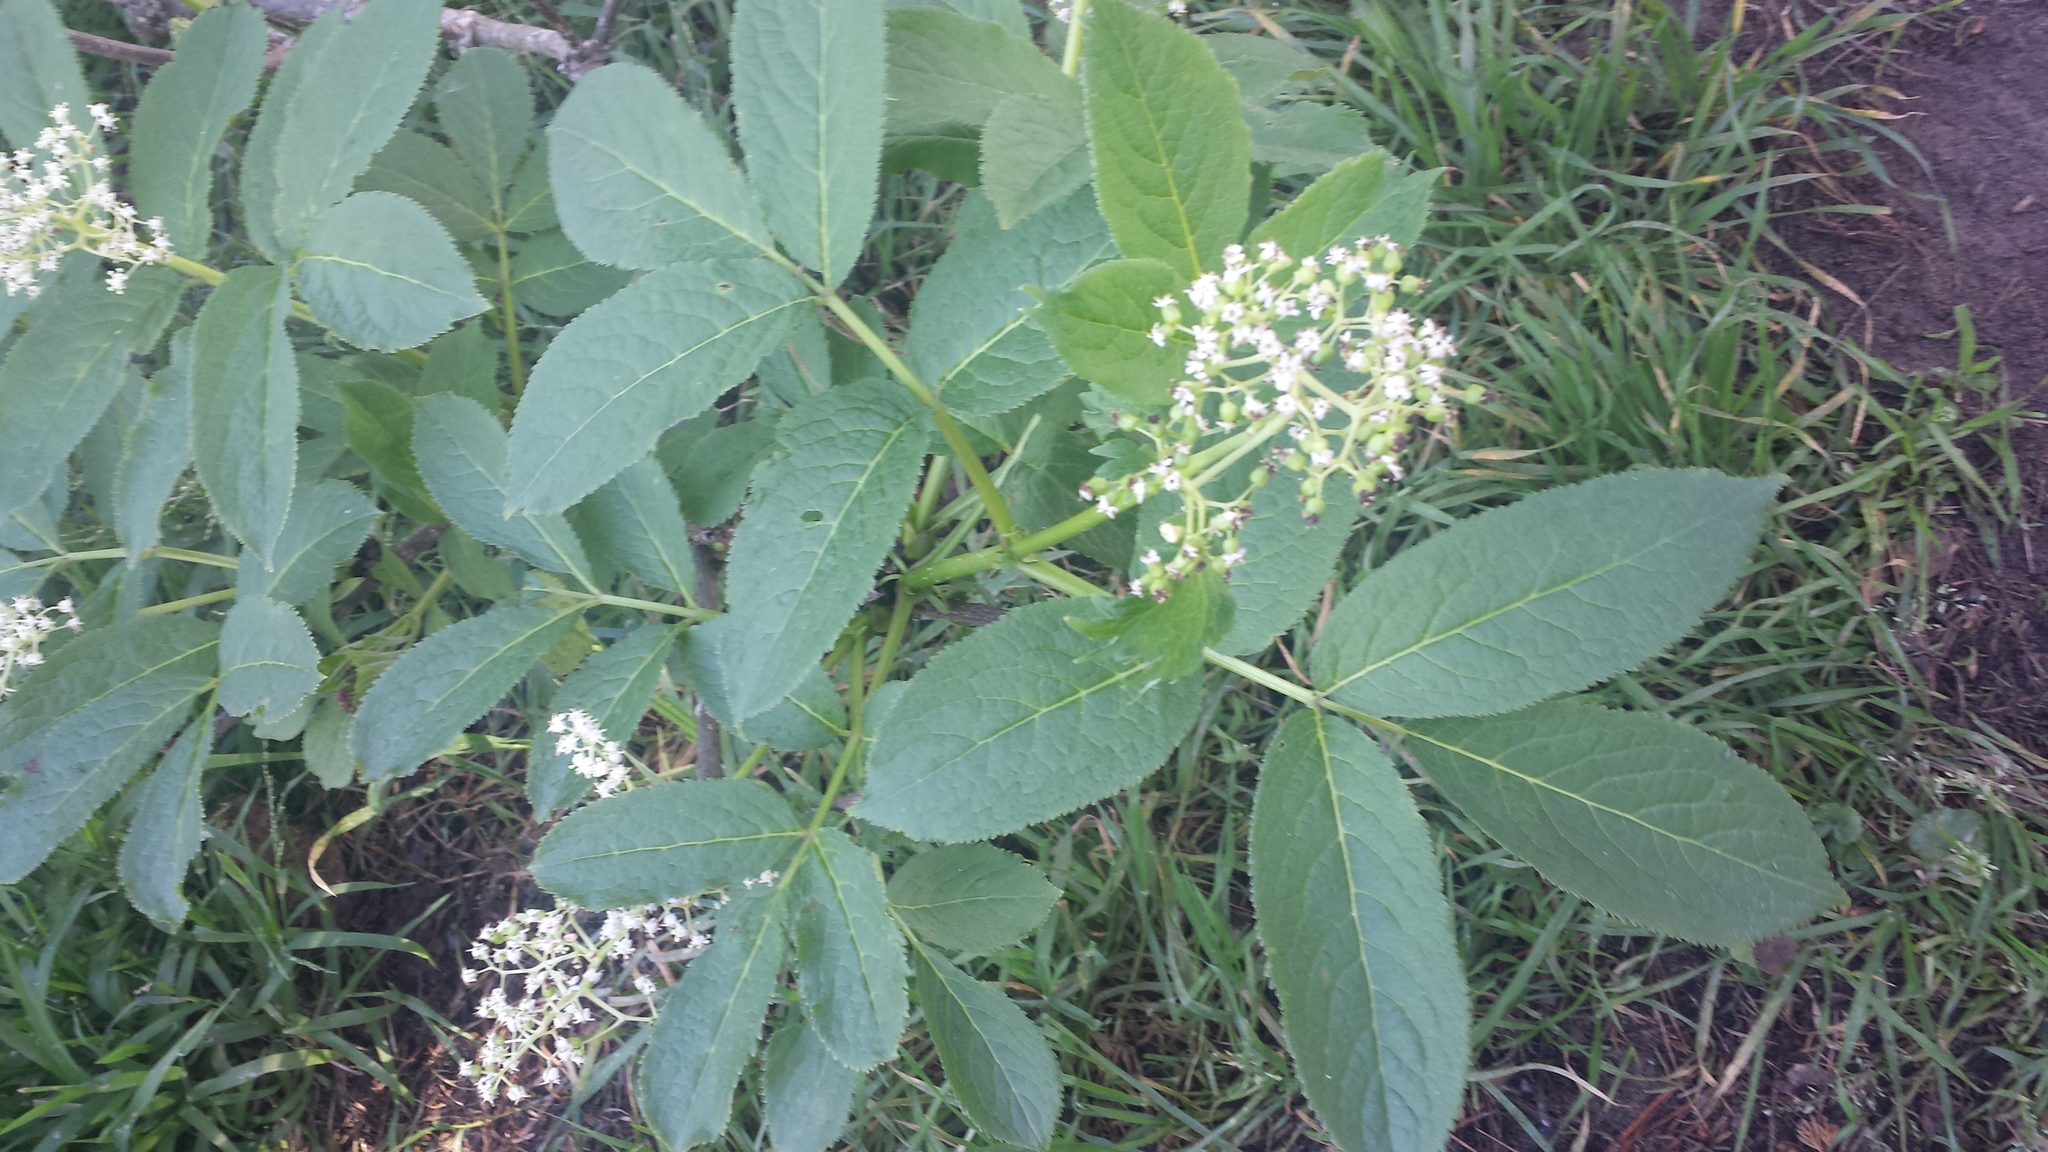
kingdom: Plantae
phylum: Tracheophyta
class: Magnoliopsida
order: Dipsacales
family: Viburnaceae
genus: Sambucus
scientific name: Sambucus racemosa
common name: Red-berried elder
